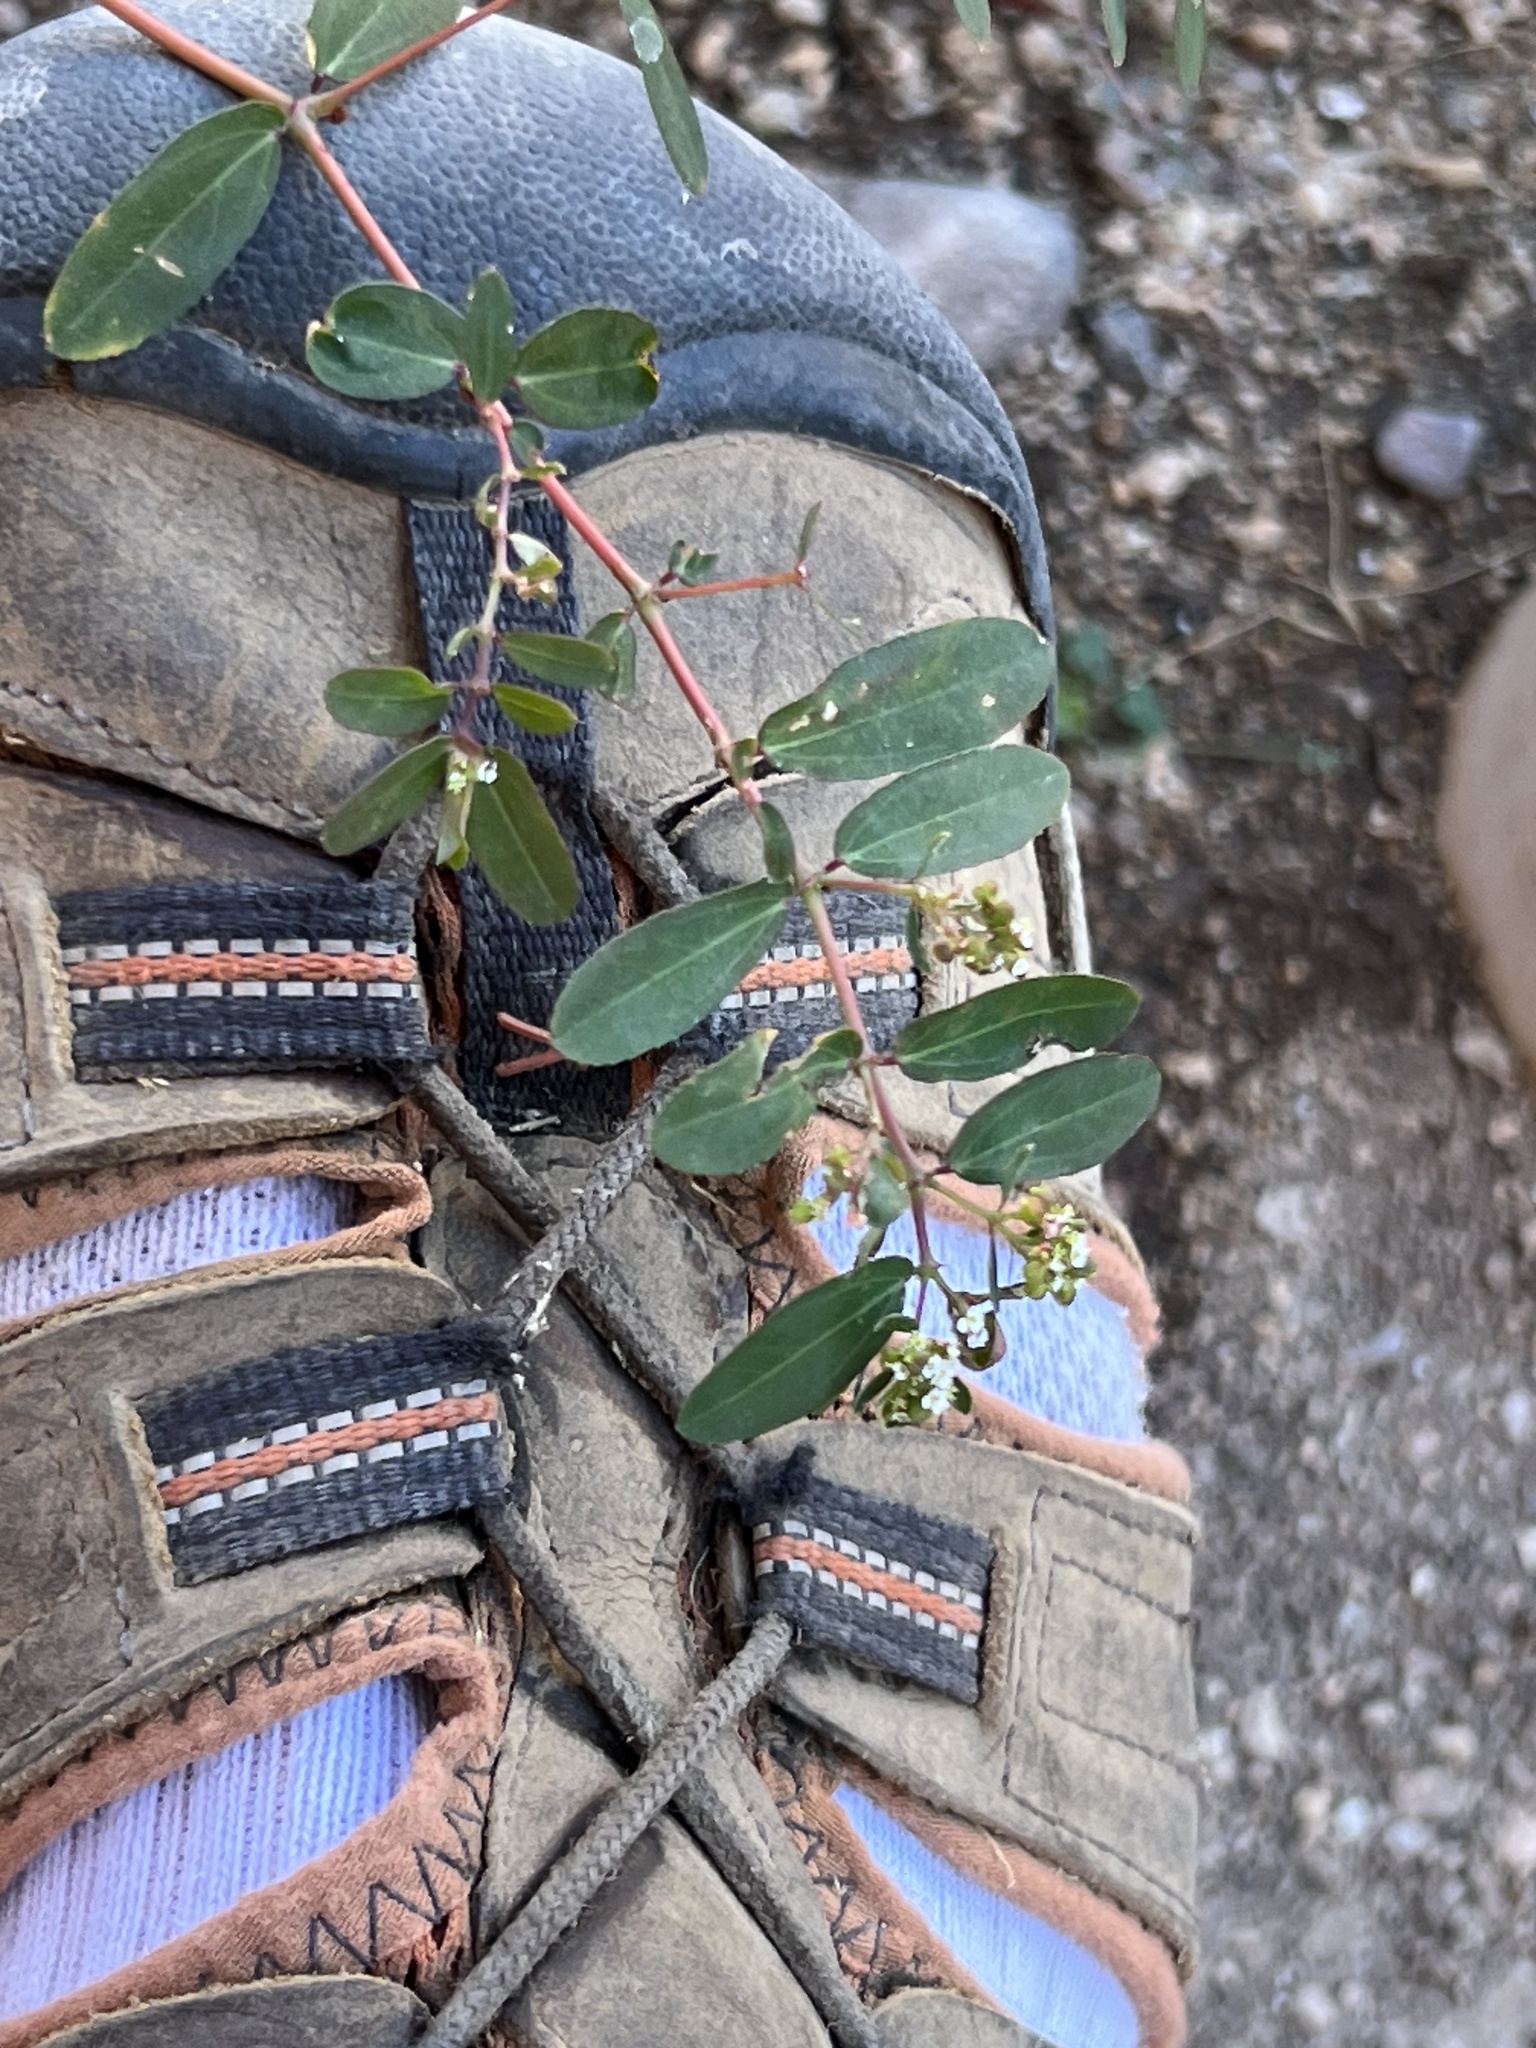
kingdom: Plantae
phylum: Tracheophyta
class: Magnoliopsida
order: Malpighiales
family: Euphorbiaceae
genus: Euphorbia
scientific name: Euphorbia hypericifolia
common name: Graceful sandmat
